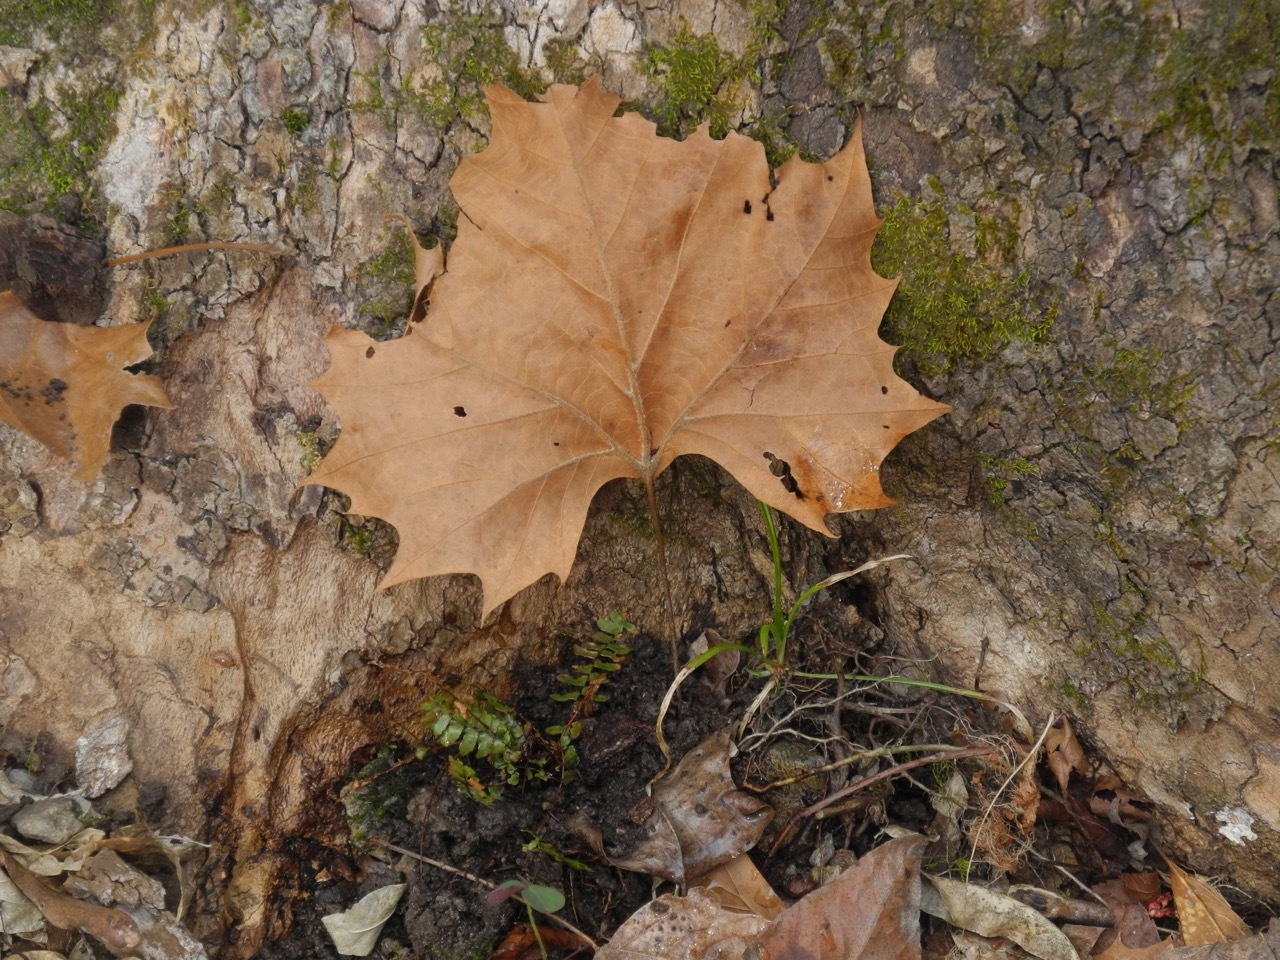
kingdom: Plantae
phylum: Tracheophyta
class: Magnoliopsida
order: Proteales
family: Platanaceae
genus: Platanus
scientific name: Platanus occidentalis
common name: American sycamore
